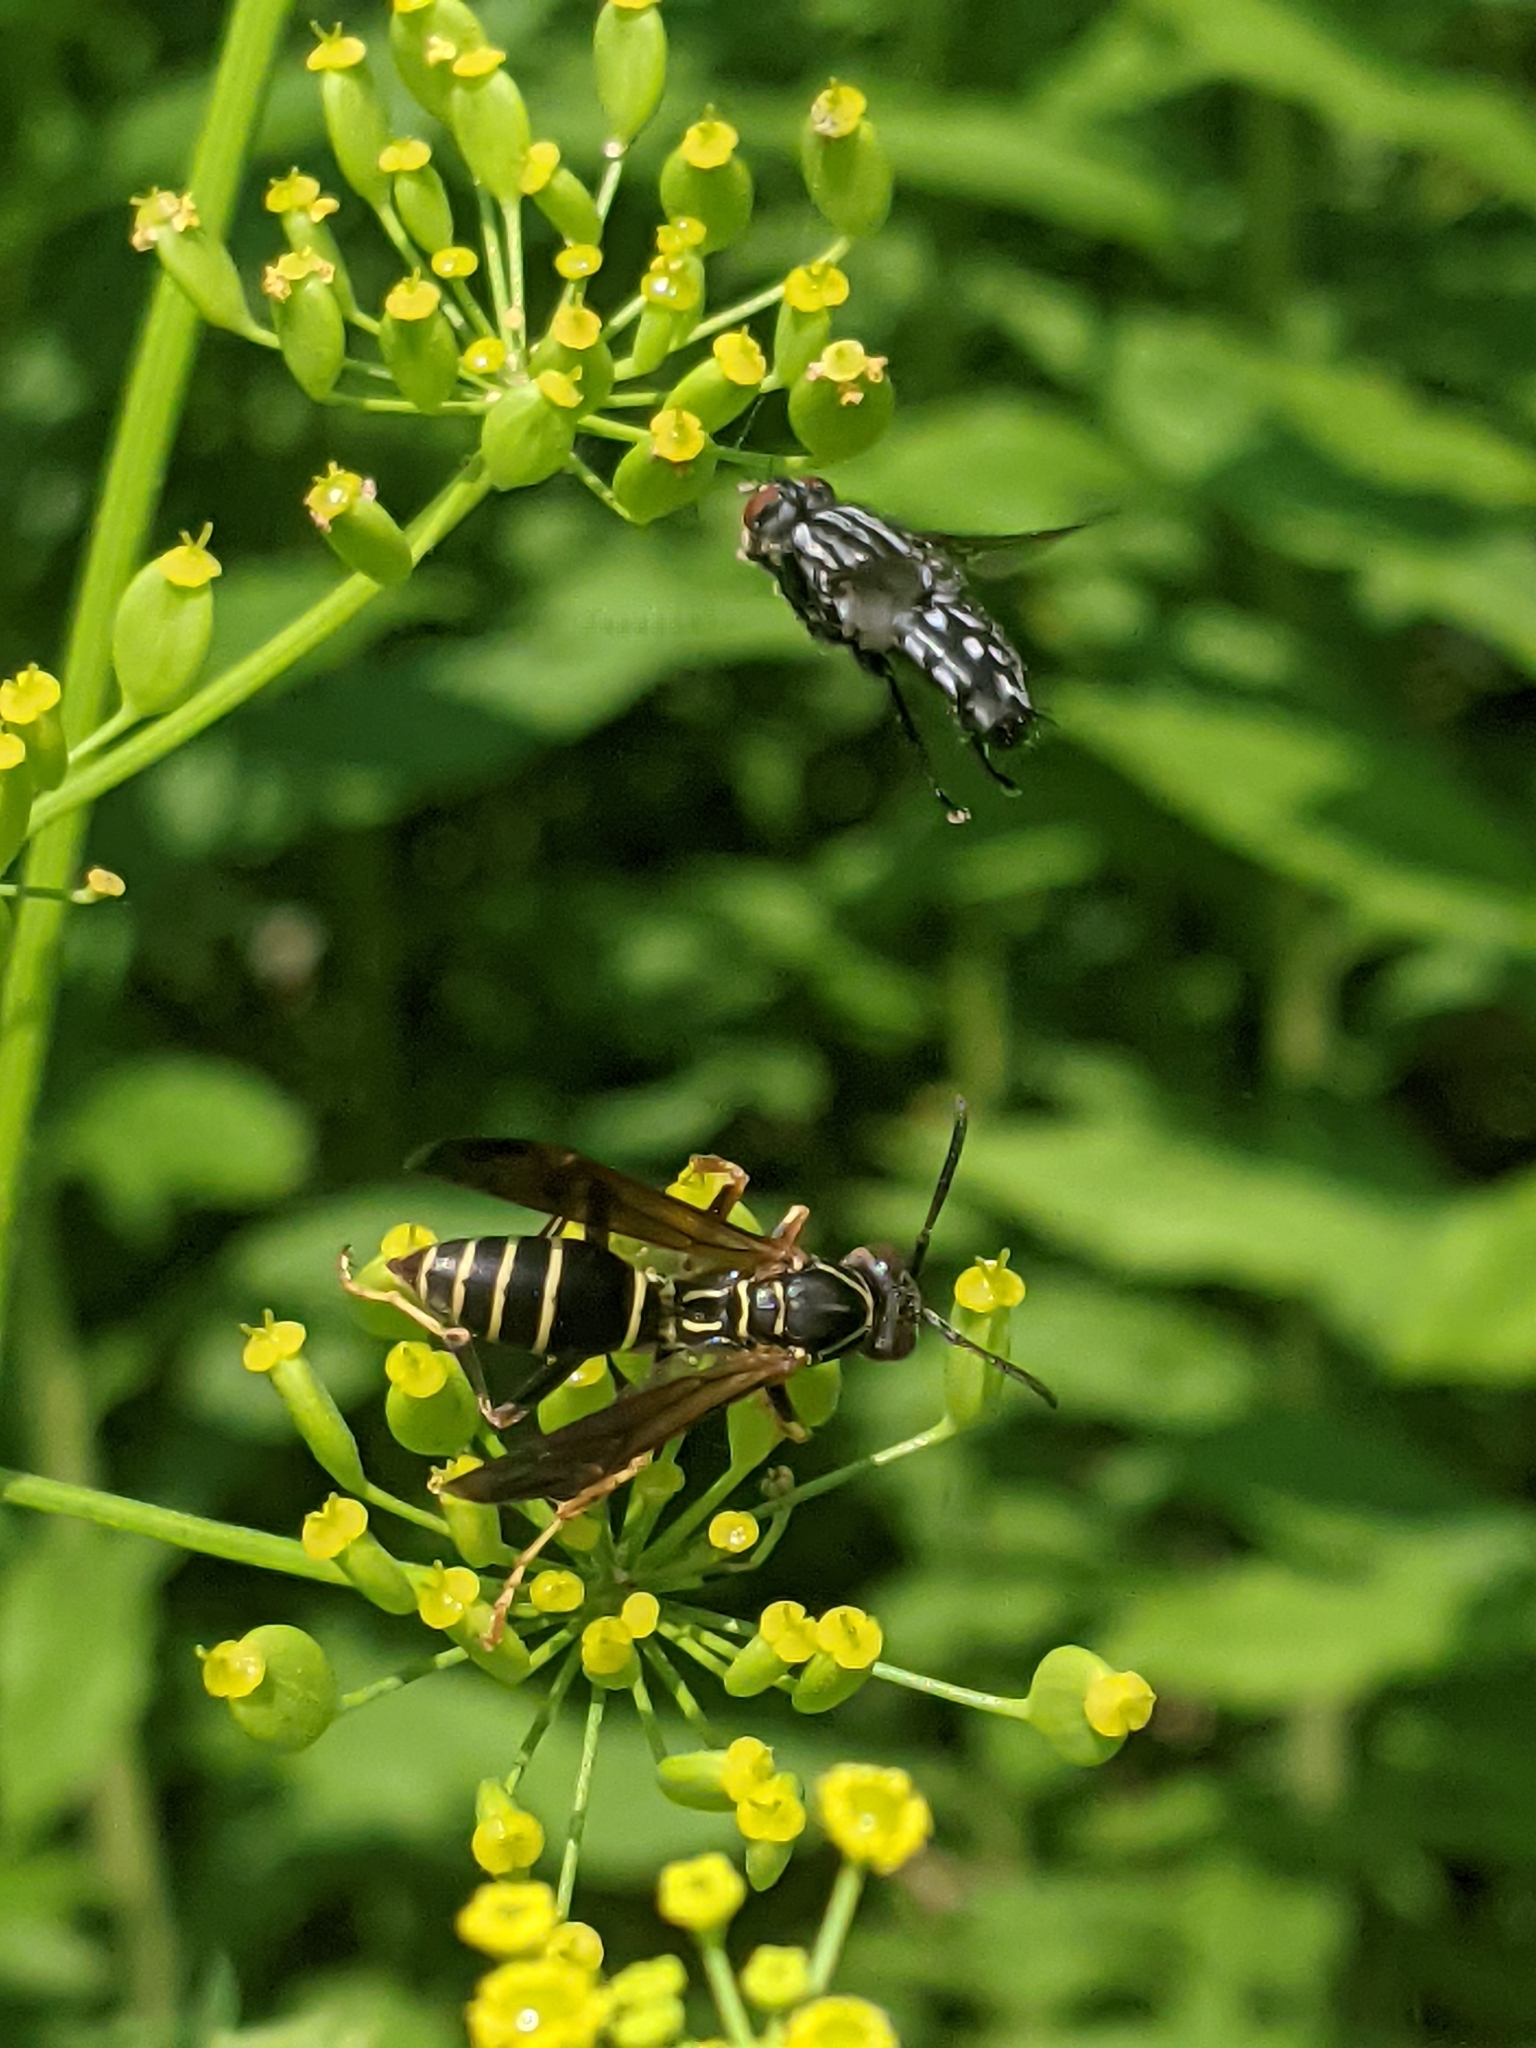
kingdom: Animalia
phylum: Arthropoda
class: Insecta
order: Hymenoptera
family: Eumenidae
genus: Polistes
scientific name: Polistes fuscatus
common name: Dark paper wasp
